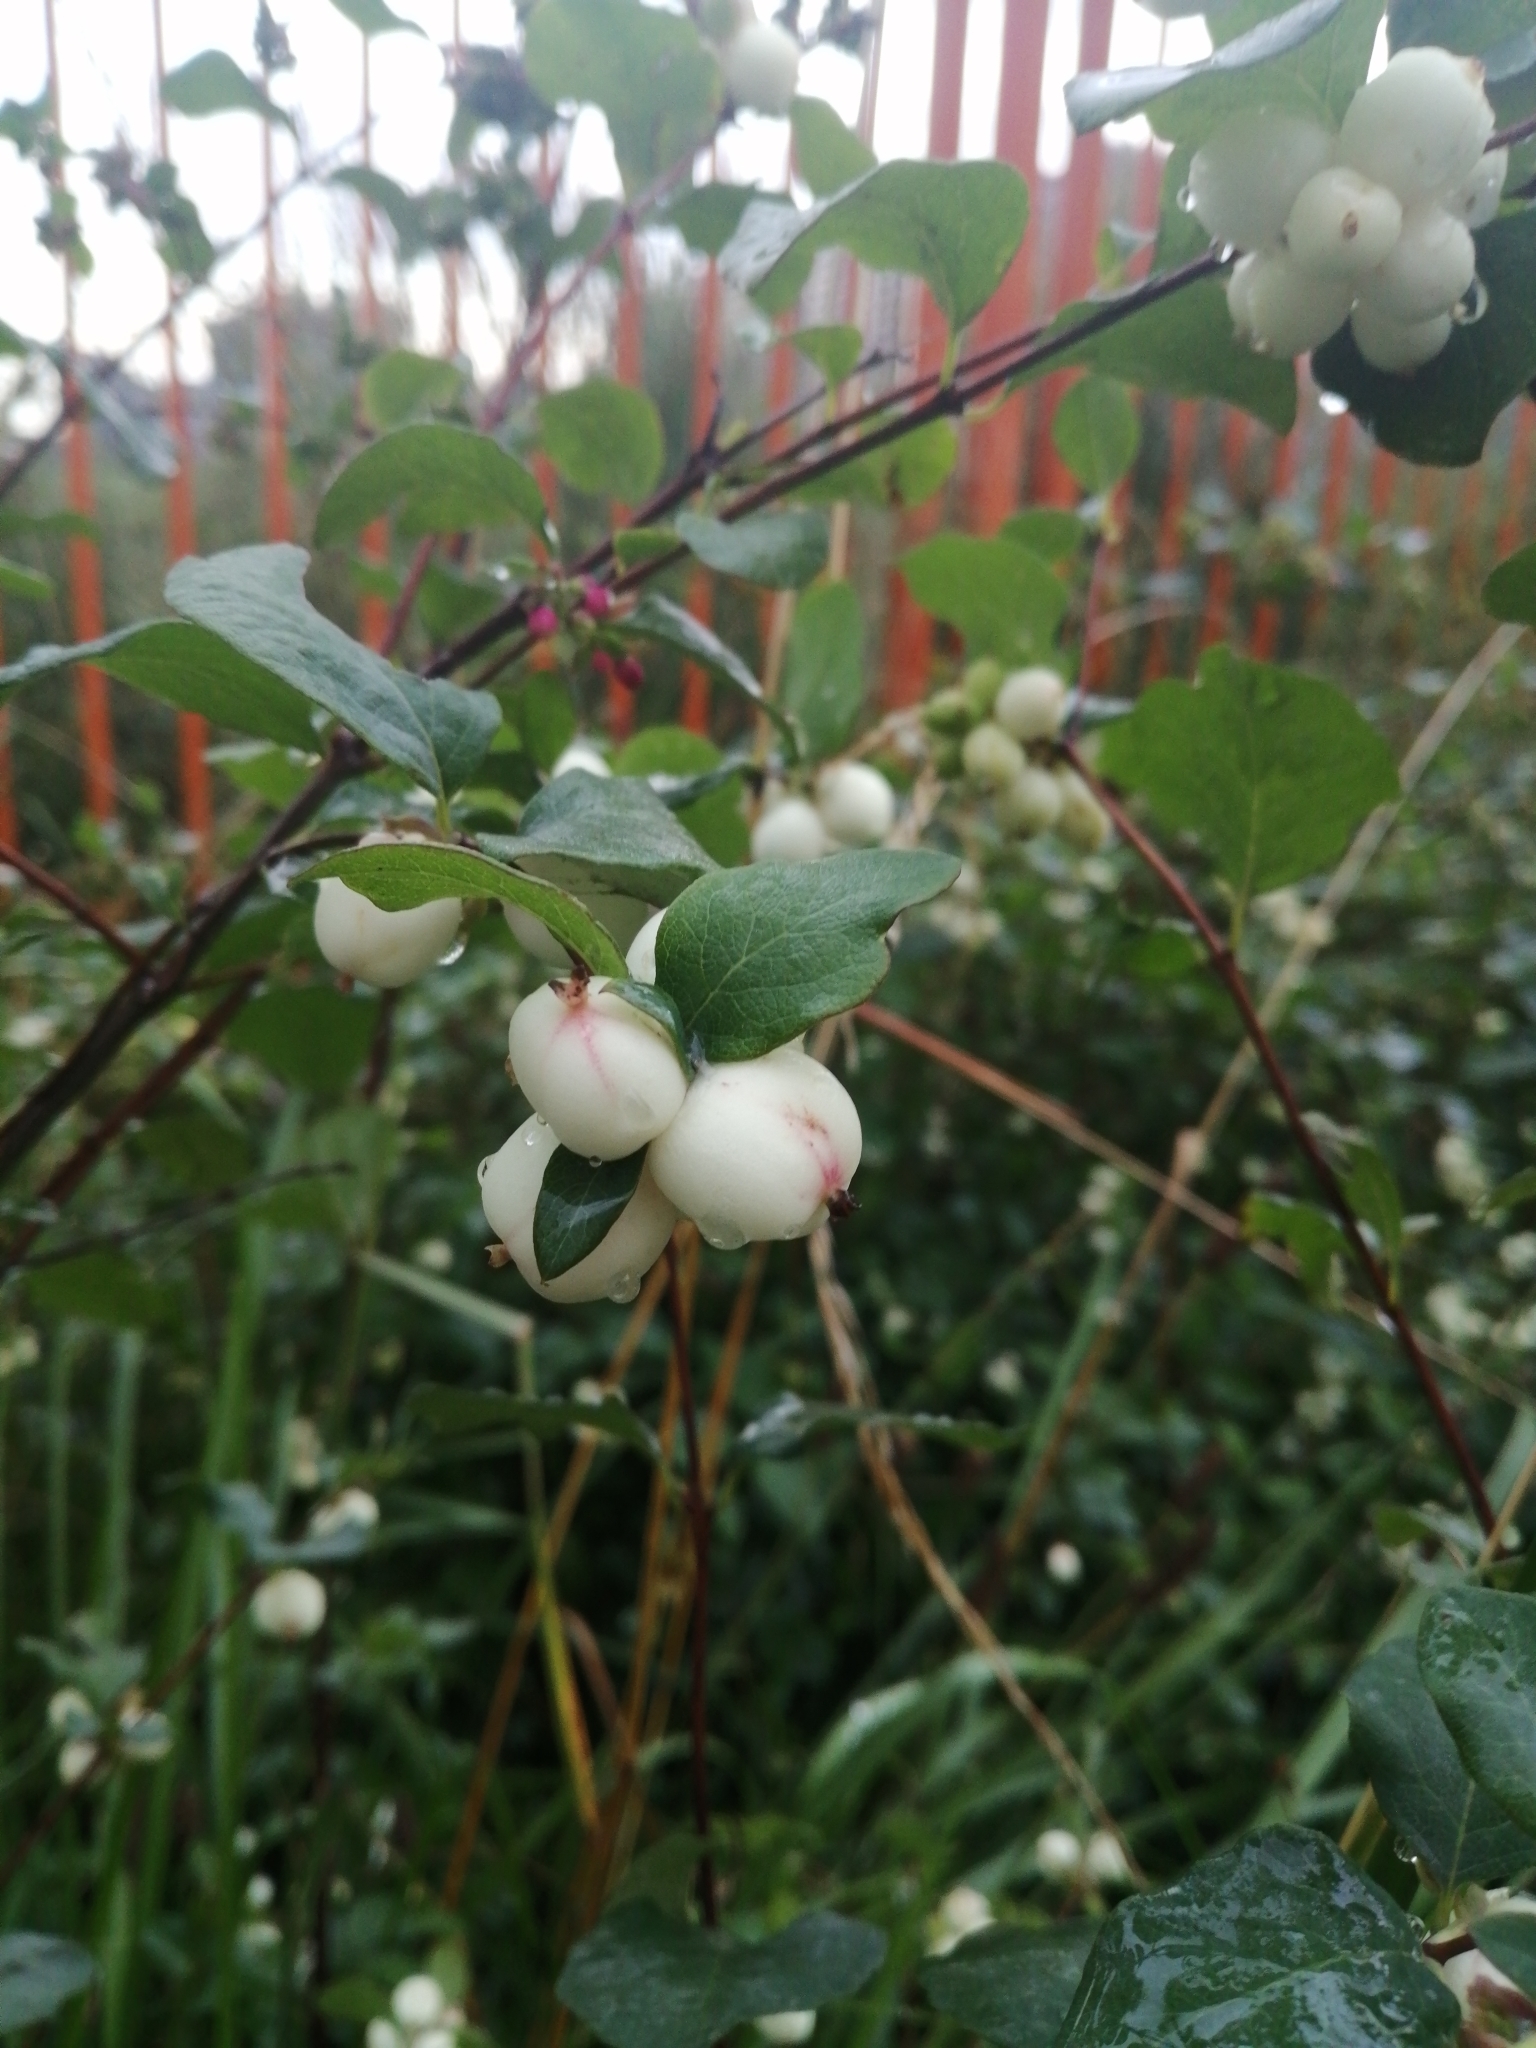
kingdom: Plantae
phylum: Tracheophyta
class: Magnoliopsida
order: Dipsacales
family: Caprifoliaceae
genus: Symphoricarpos
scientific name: Symphoricarpos albus
